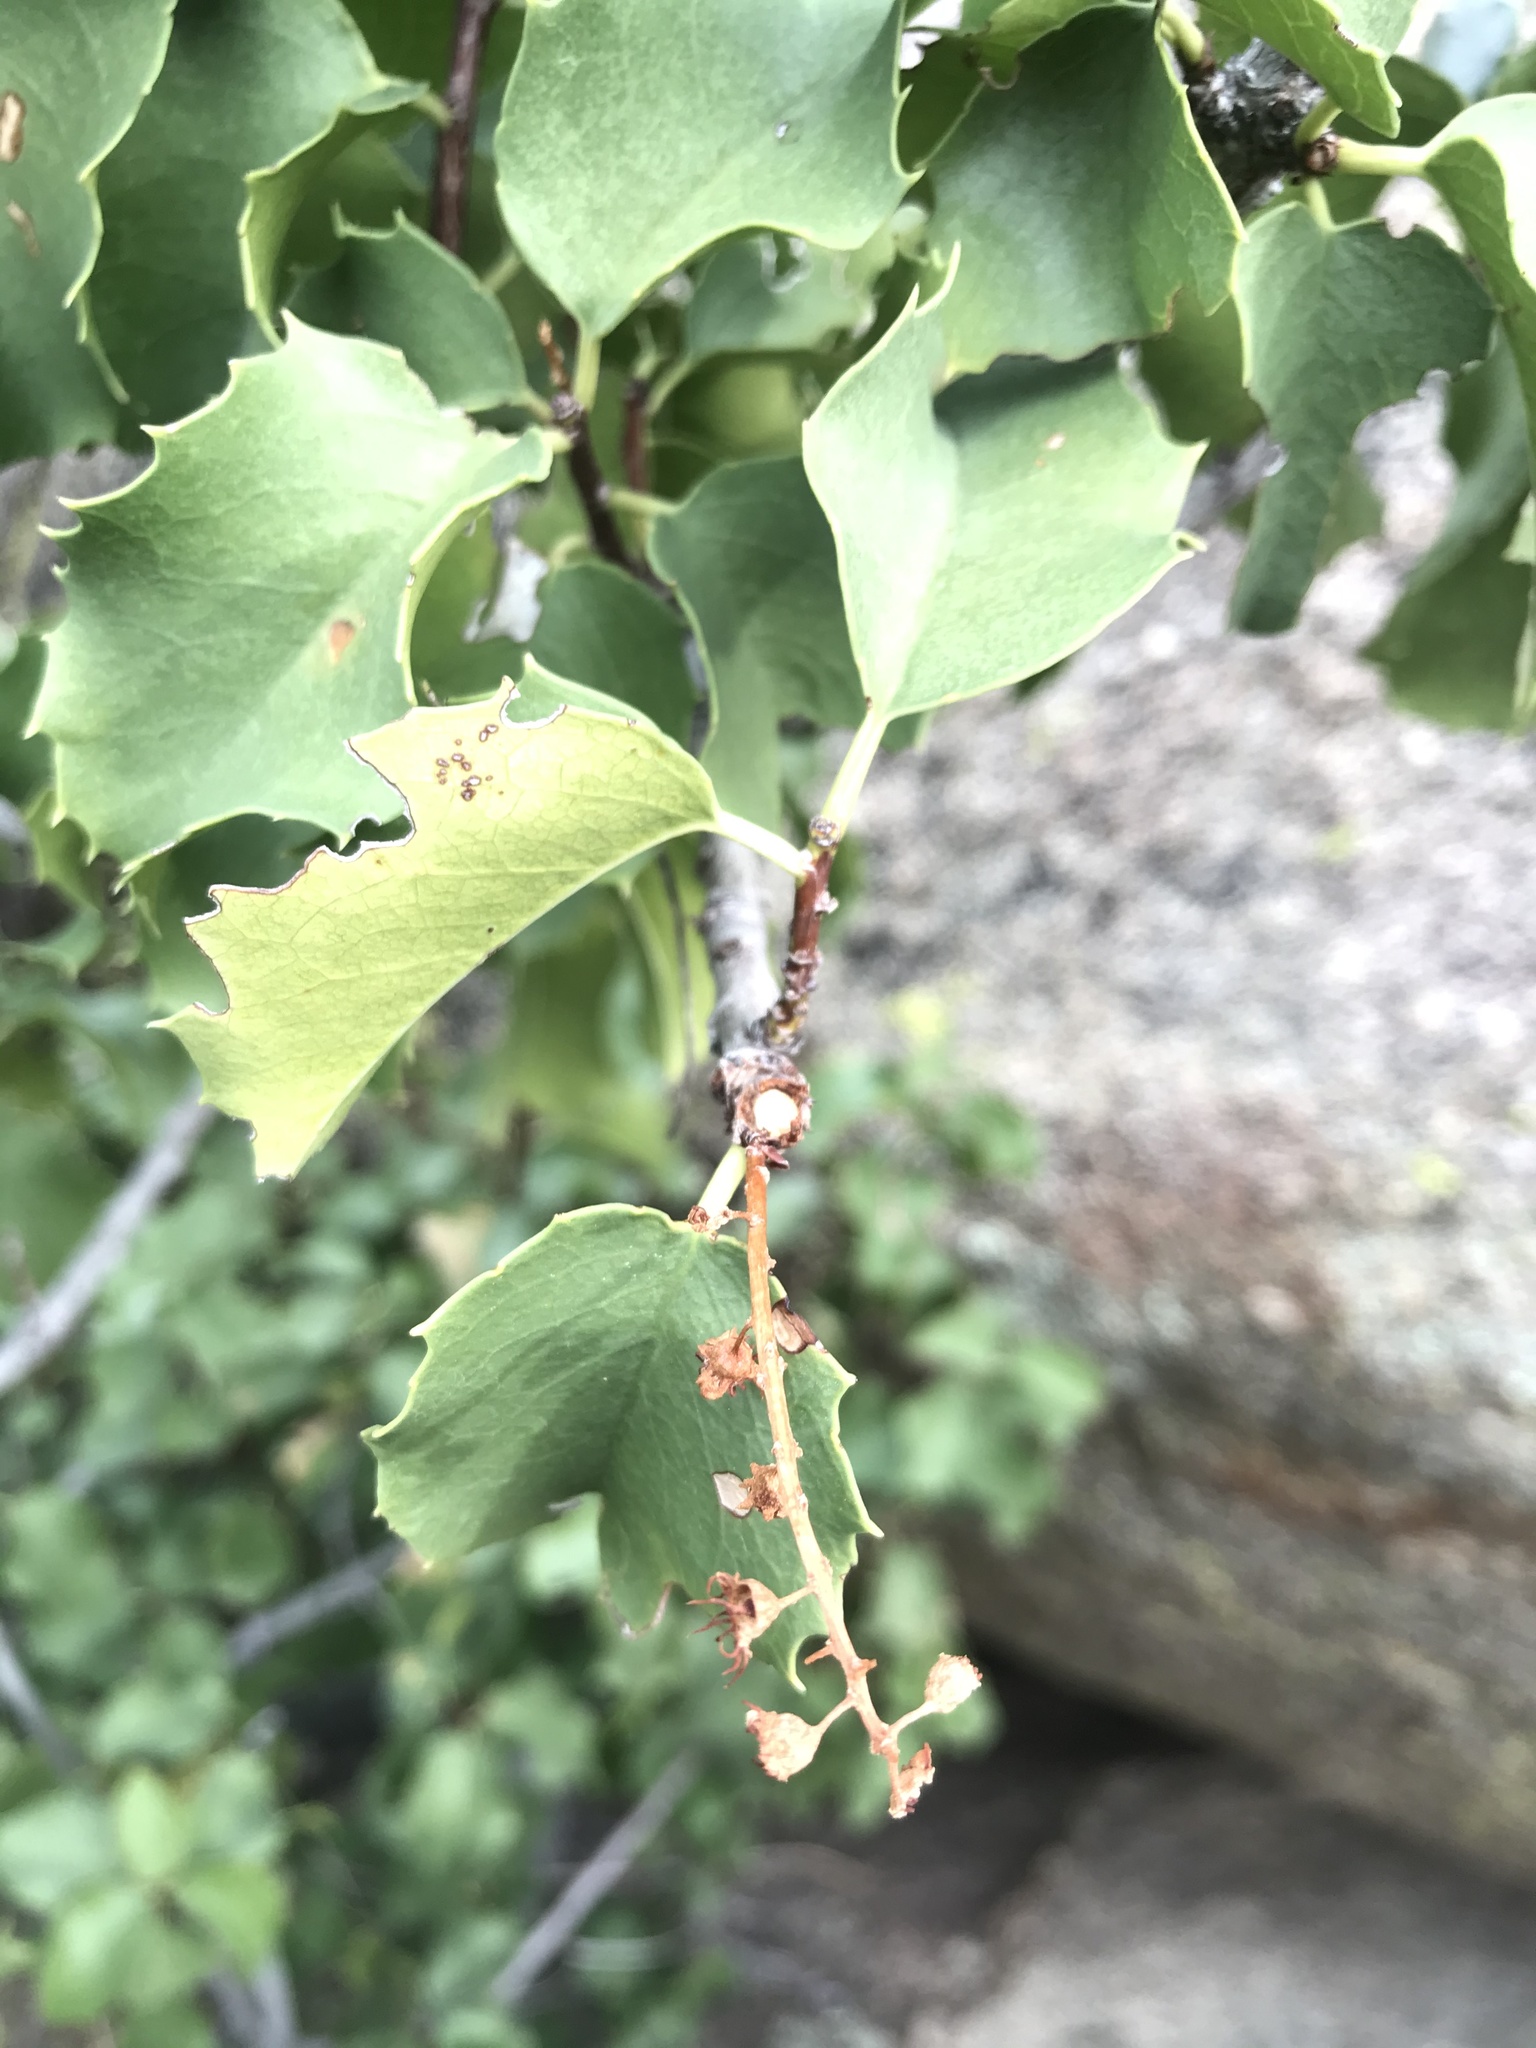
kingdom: Plantae
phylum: Tracheophyta
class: Magnoliopsida
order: Rosales
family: Rosaceae
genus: Prunus
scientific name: Prunus ilicifolia
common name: Hollyleaf cherry
